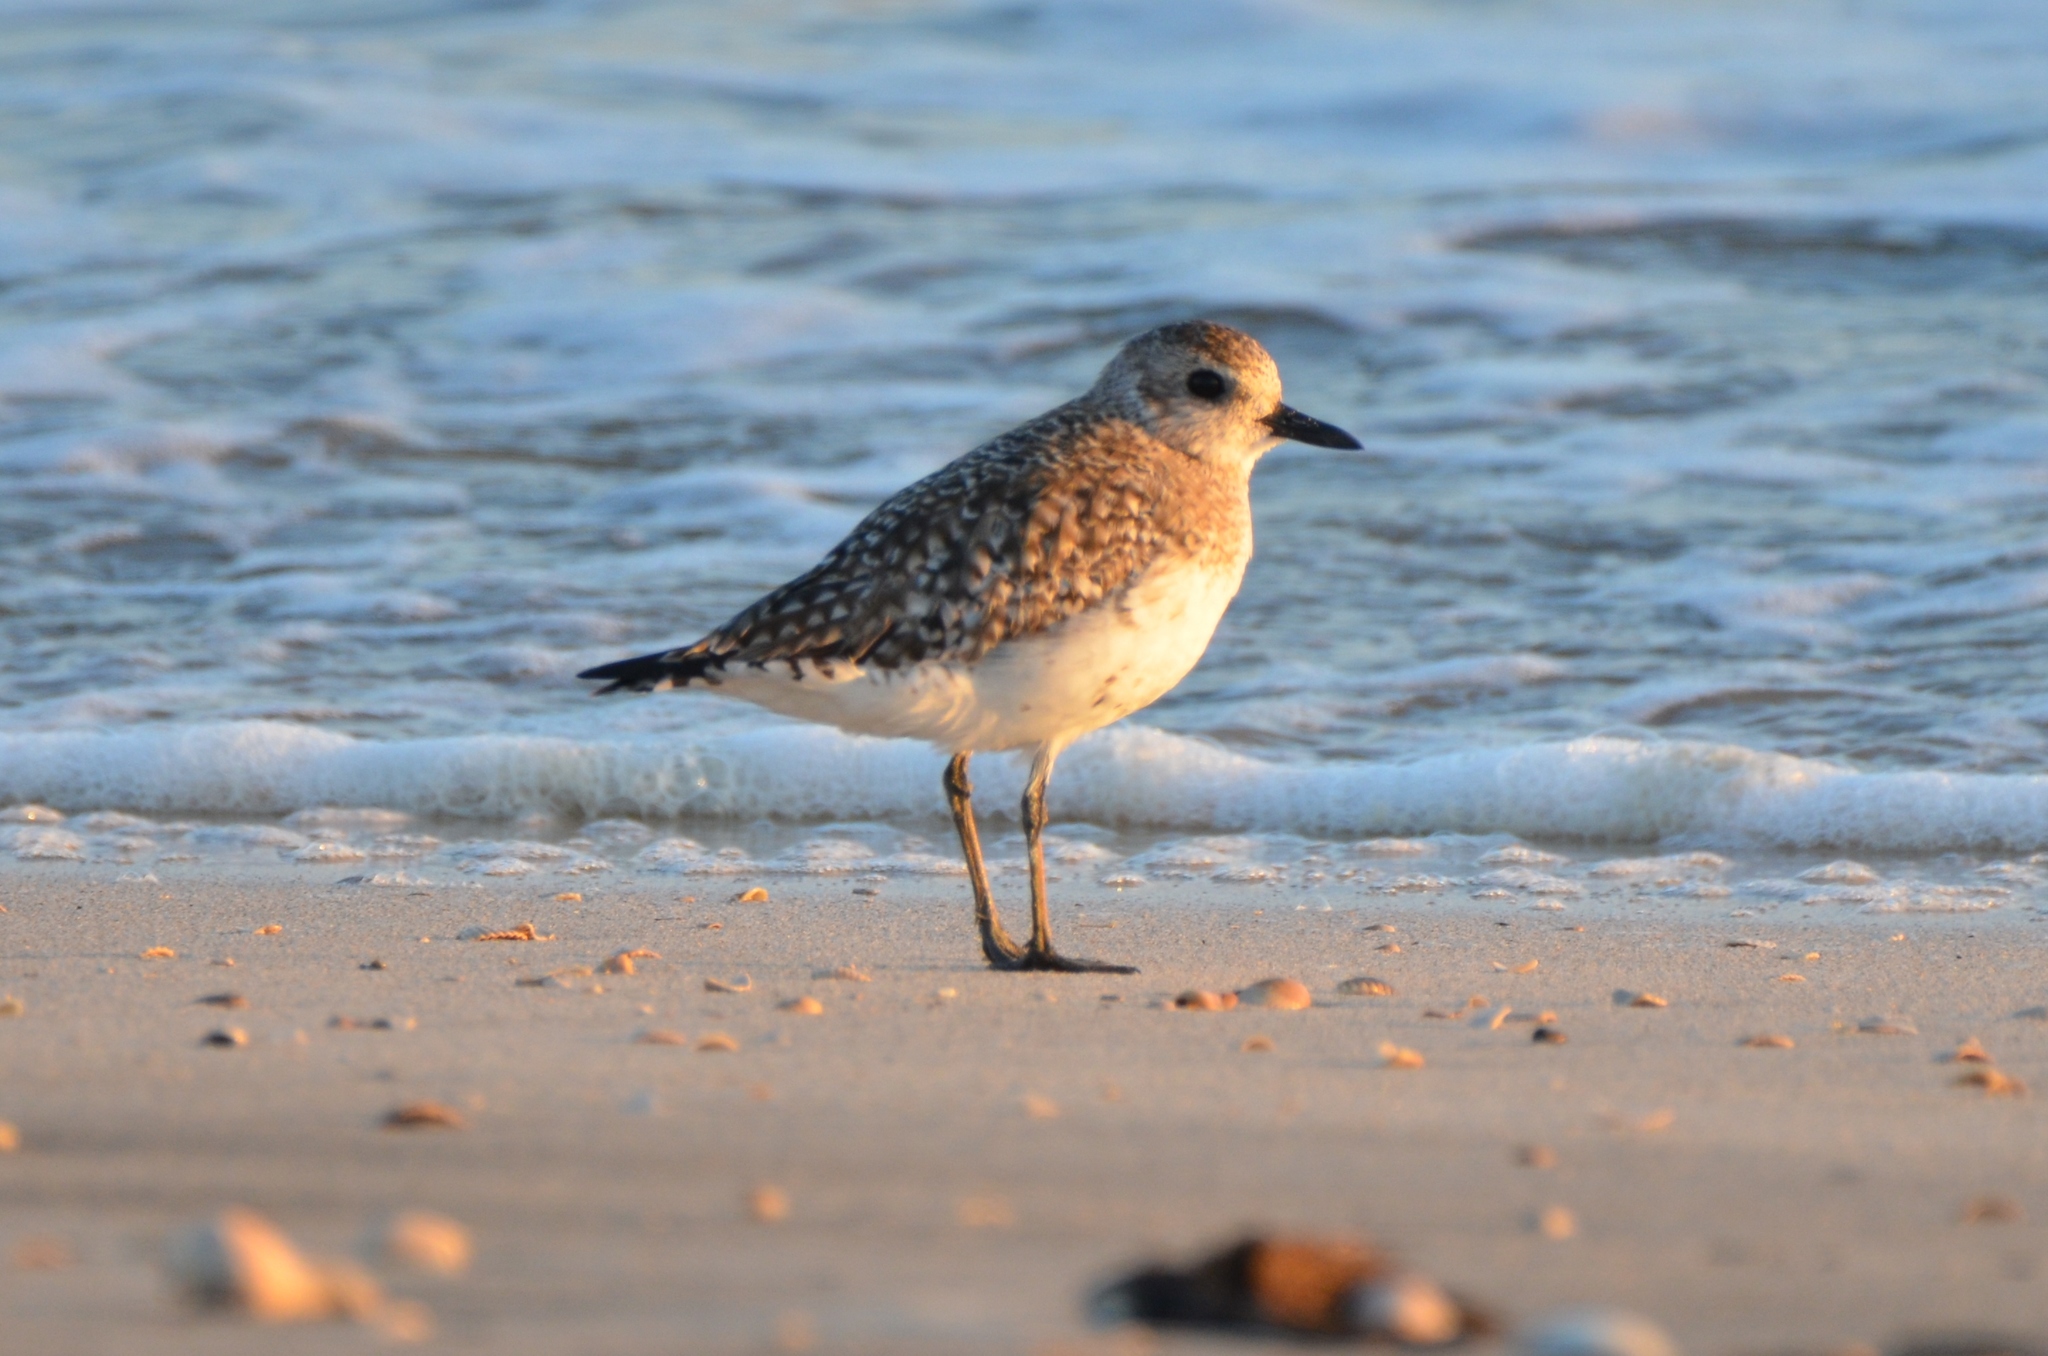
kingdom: Animalia
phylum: Chordata
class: Aves
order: Charadriiformes
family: Charadriidae
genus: Pluvialis
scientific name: Pluvialis squatarola
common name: Grey plover
